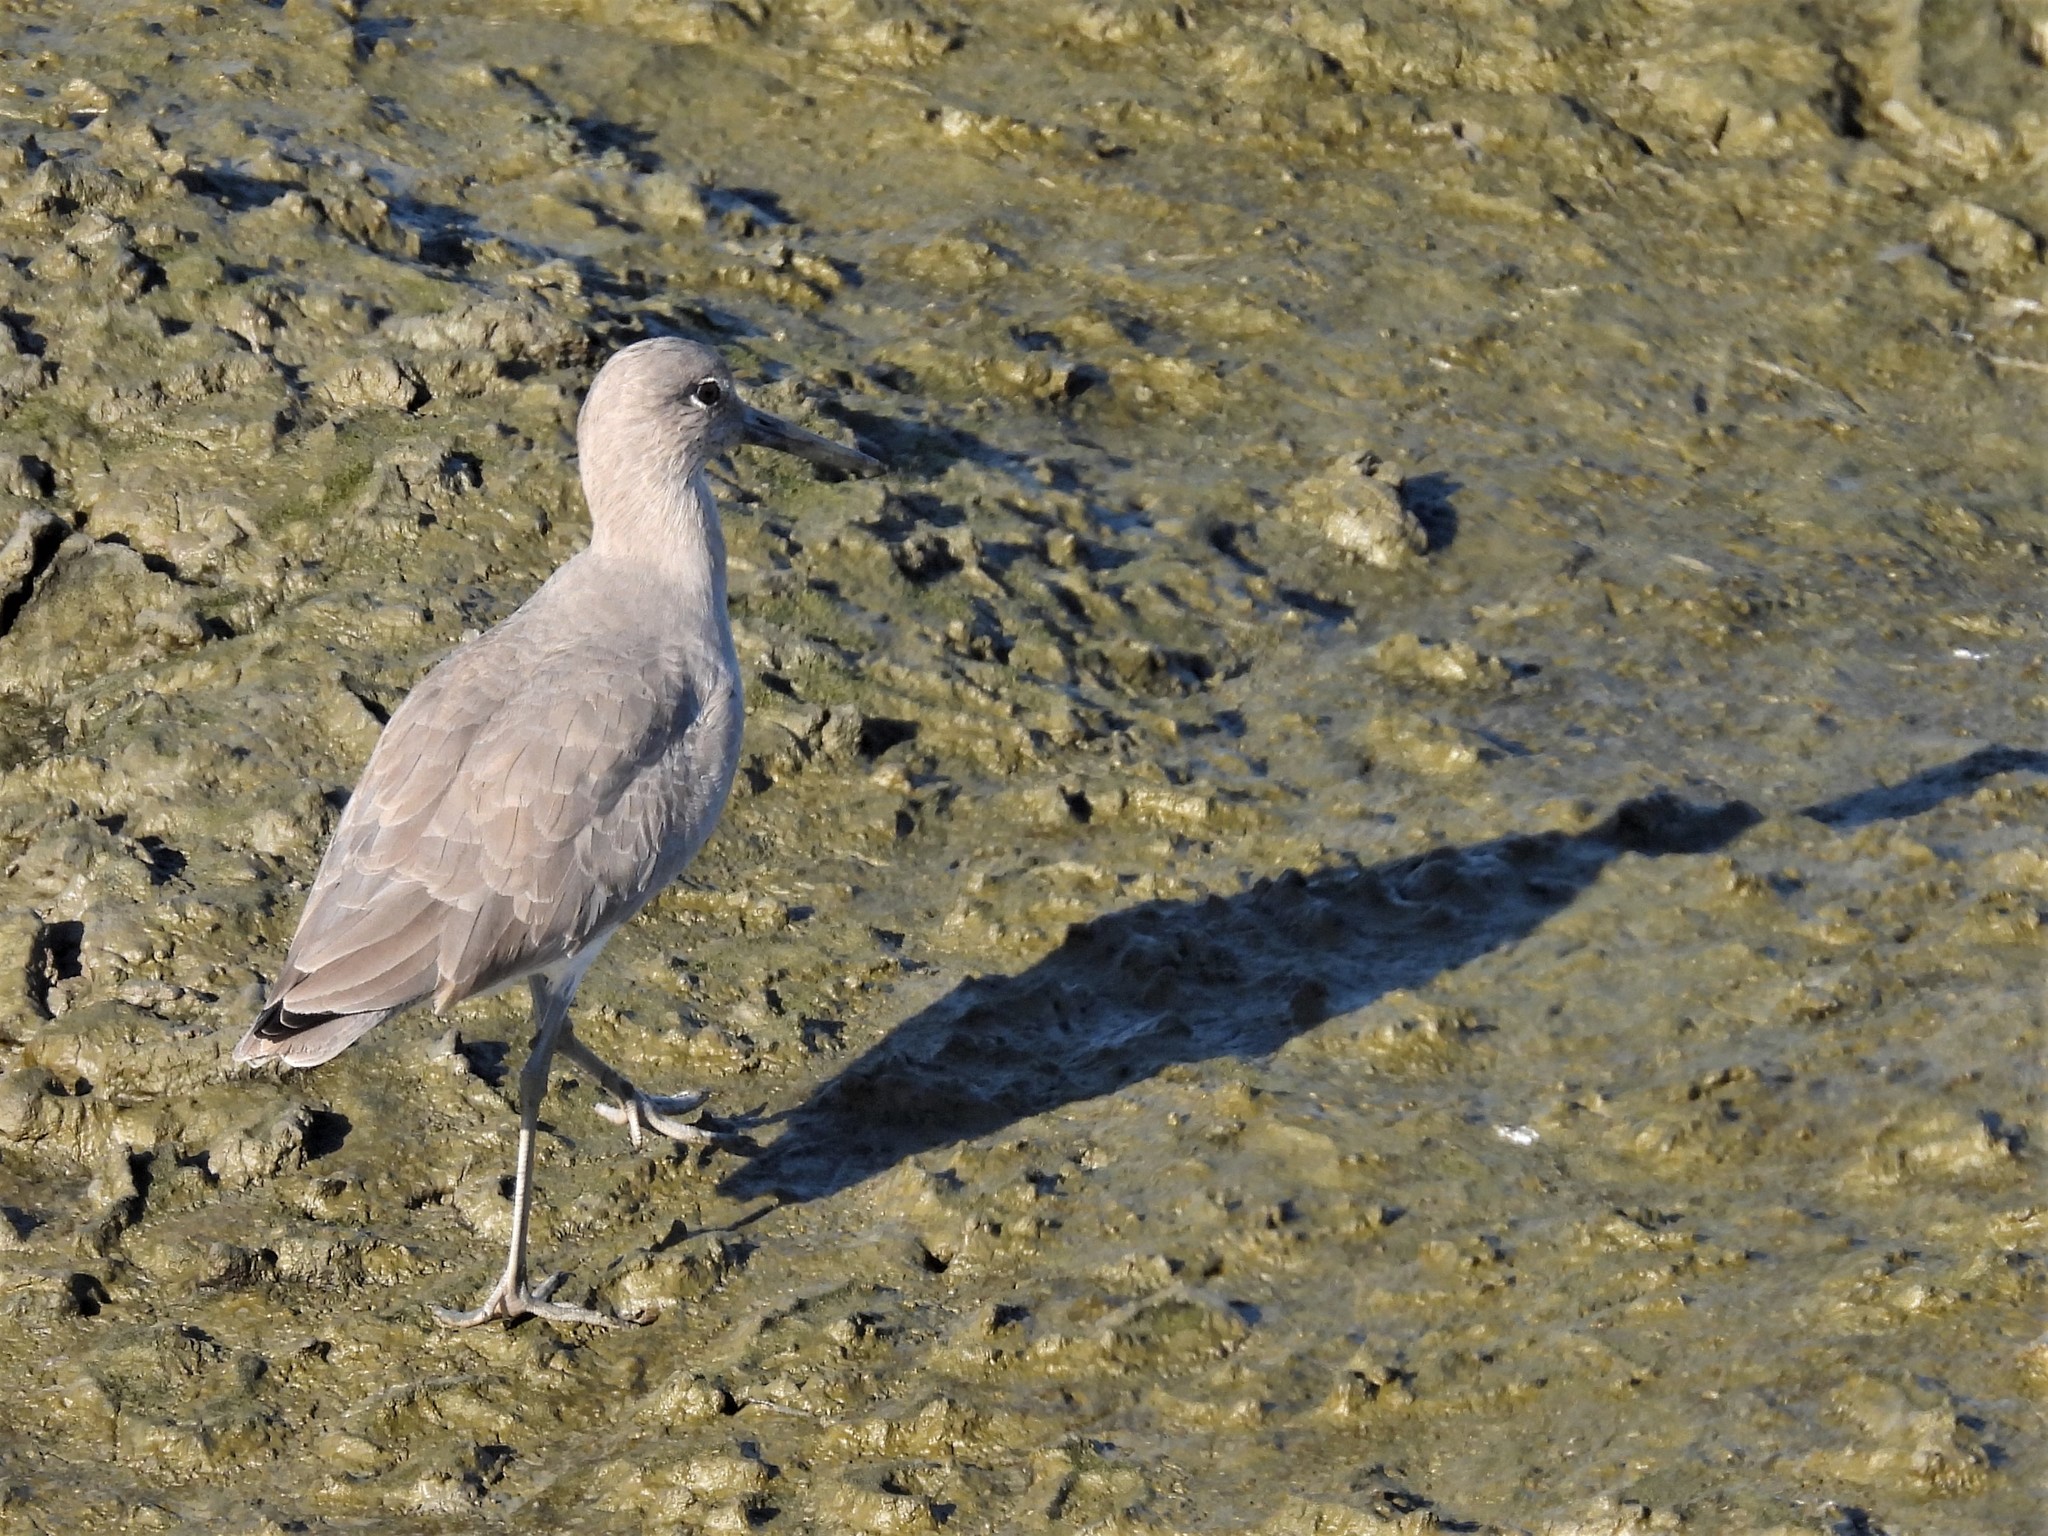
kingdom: Animalia
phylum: Chordata
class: Aves
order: Charadriiformes
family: Scolopacidae
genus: Tringa
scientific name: Tringa semipalmata
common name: Willet
